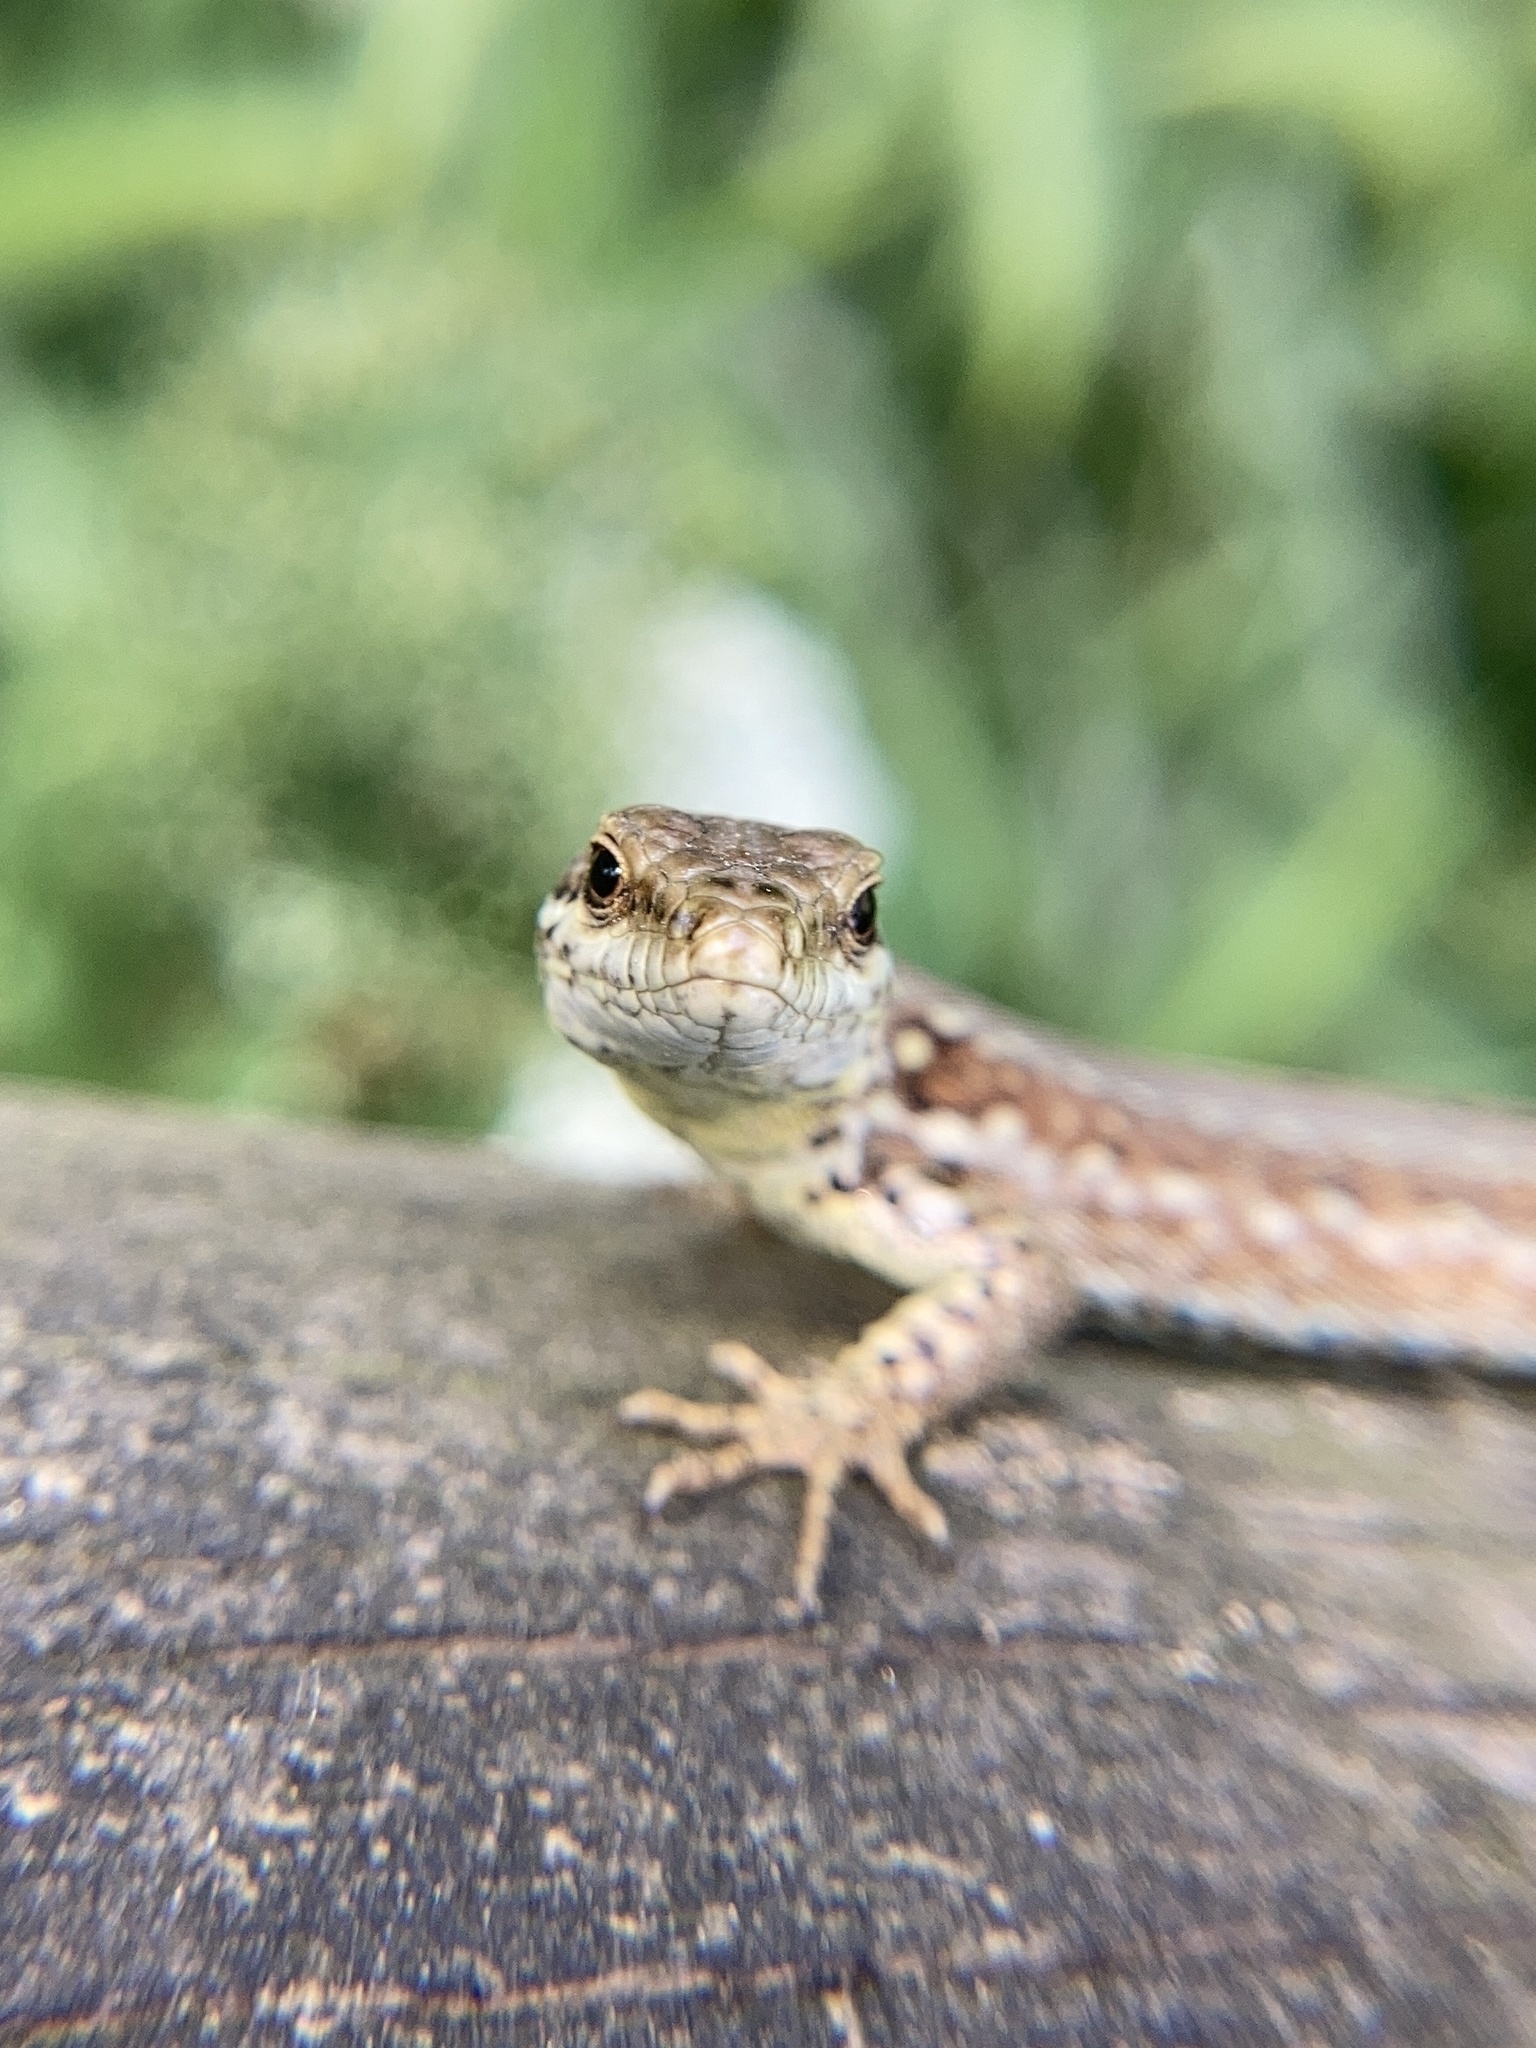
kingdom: Animalia
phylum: Chordata
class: Squamata
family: Lacertidae
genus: Podarcis
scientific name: Podarcis muralis
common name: Common wall lizard
